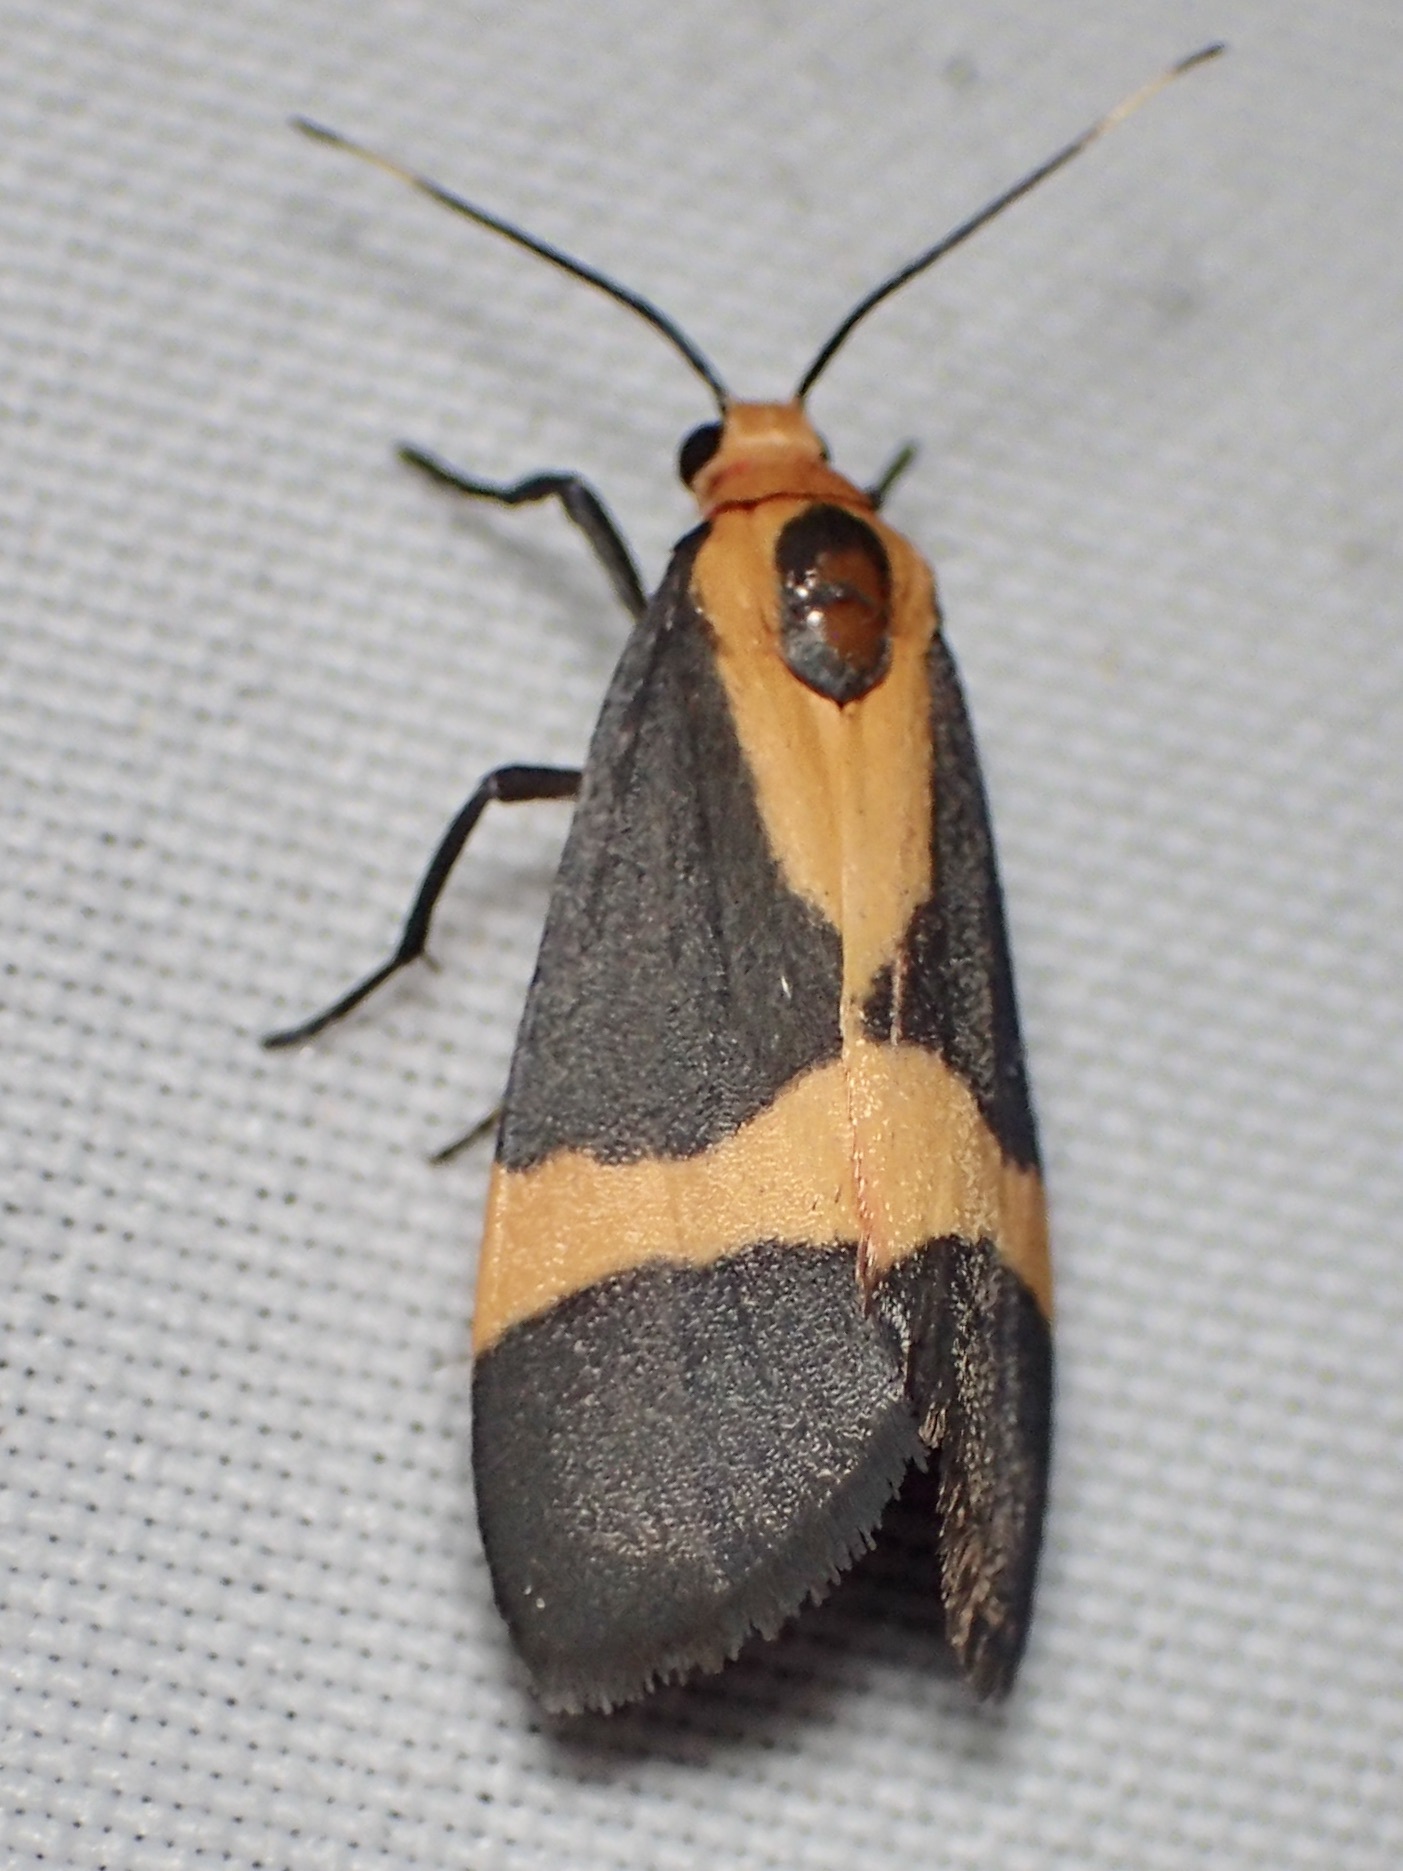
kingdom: Animalia
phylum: Arthropoda
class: Insecta
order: Lepidoptera
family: Erebidae
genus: Cisthene
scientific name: Cisthene tenuifascia
